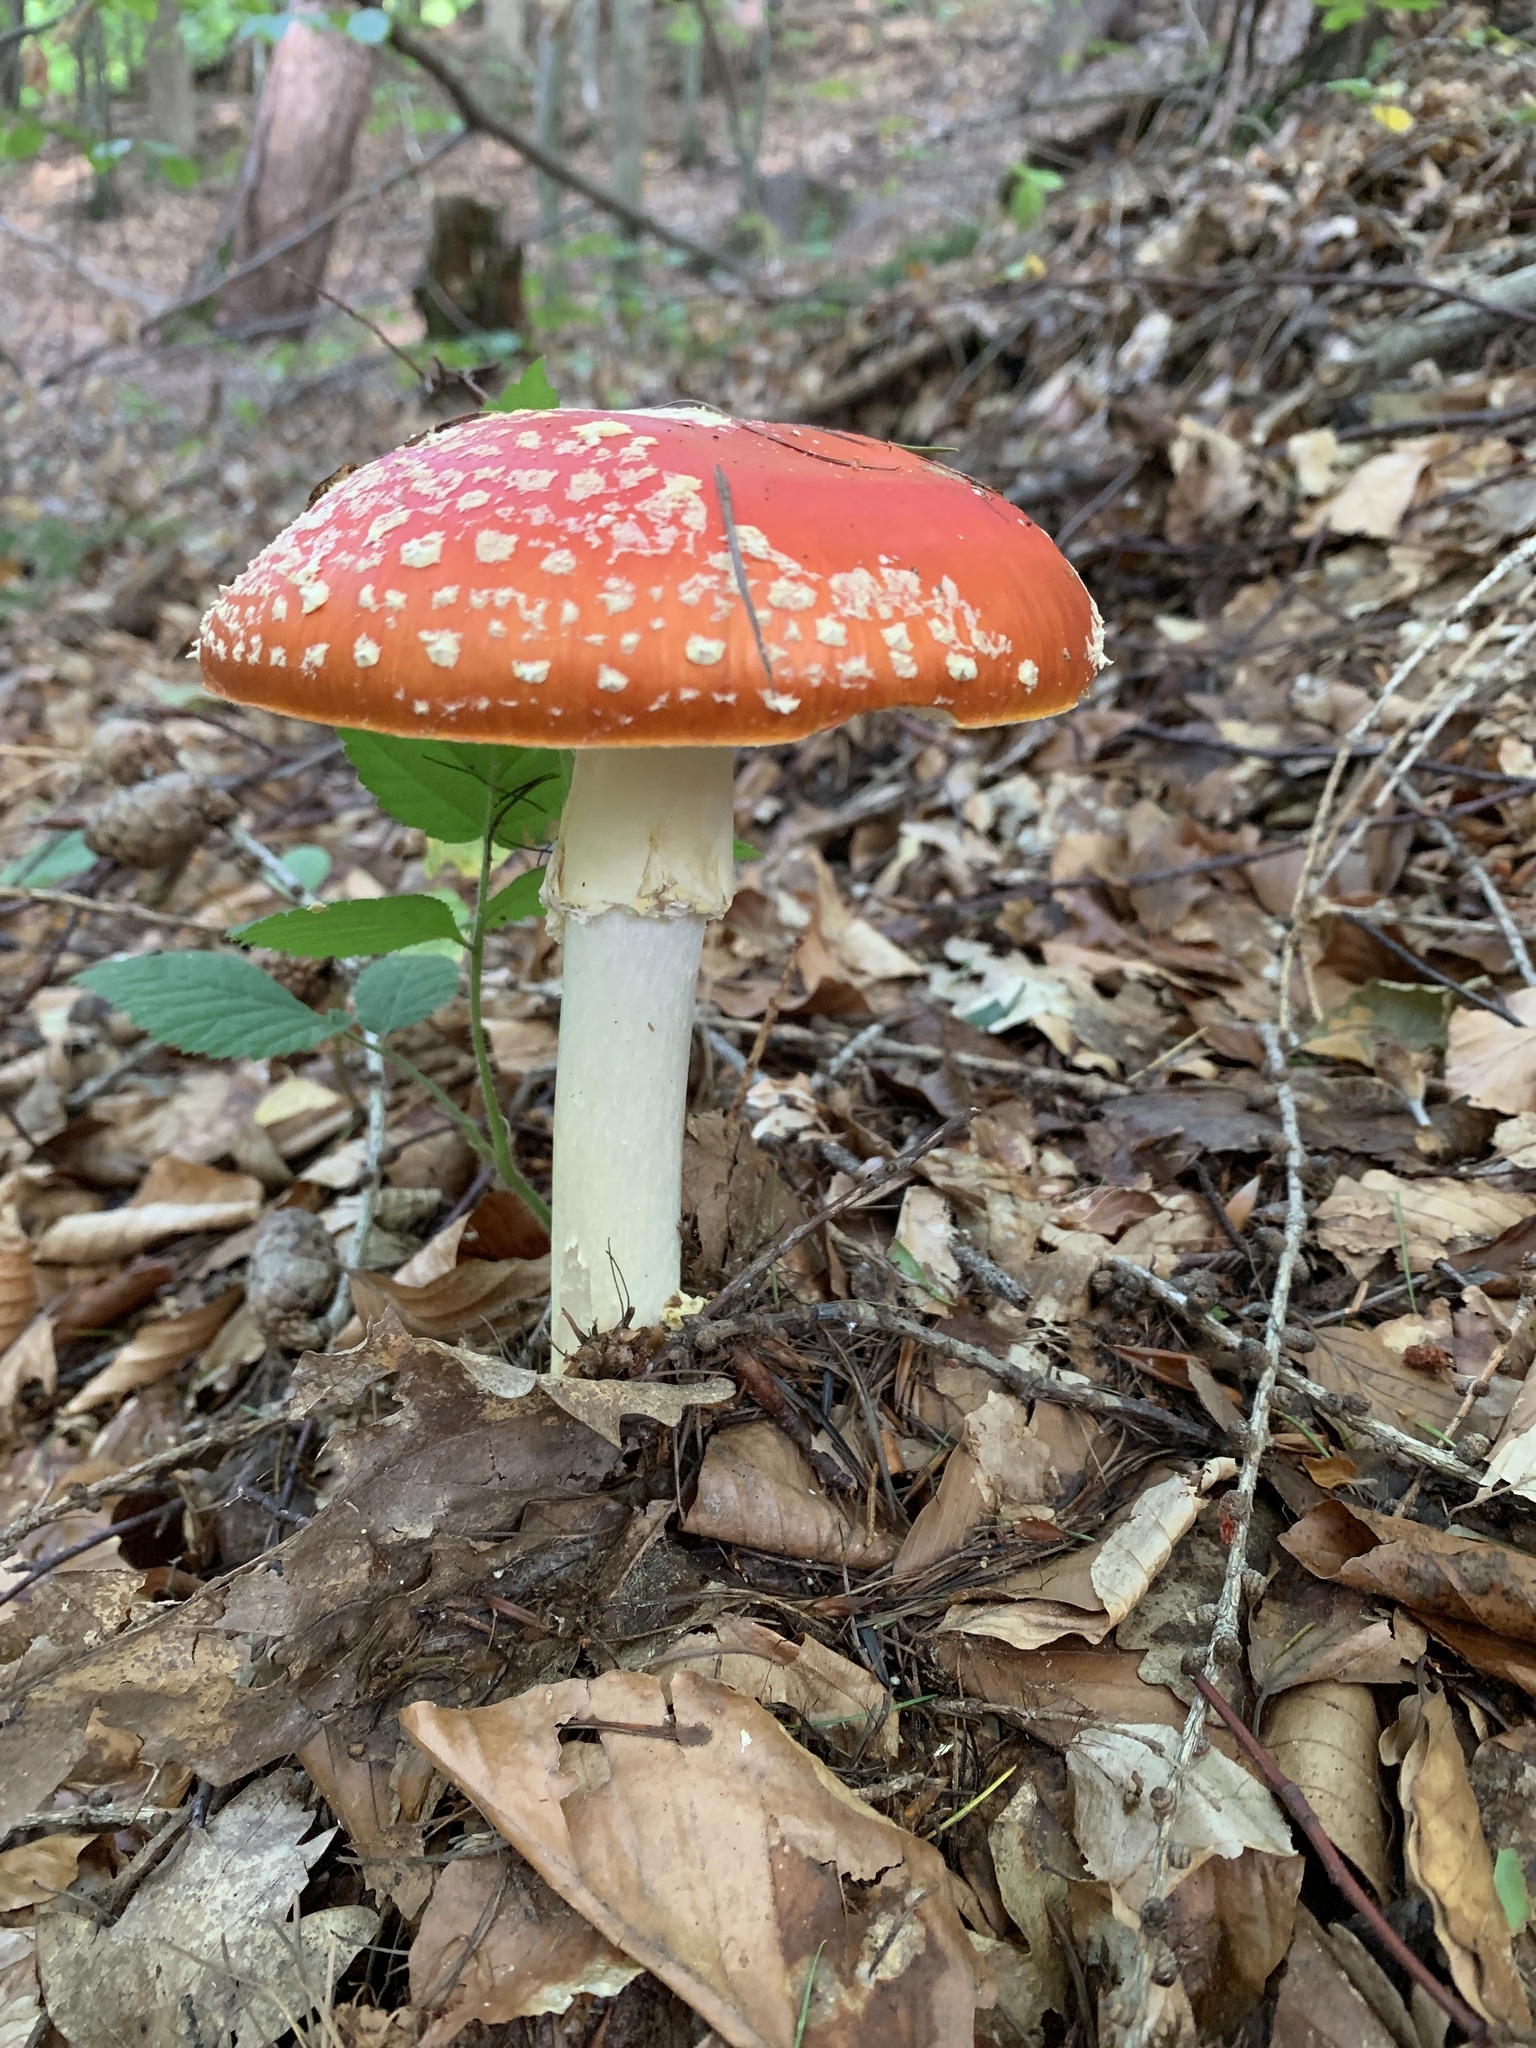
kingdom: Fungi
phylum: Basidiomycota
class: Agaricomycetes
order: Agaricales
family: Amanitaceae
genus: Amanita
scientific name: Amanita muscaria
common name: Fly agaric
